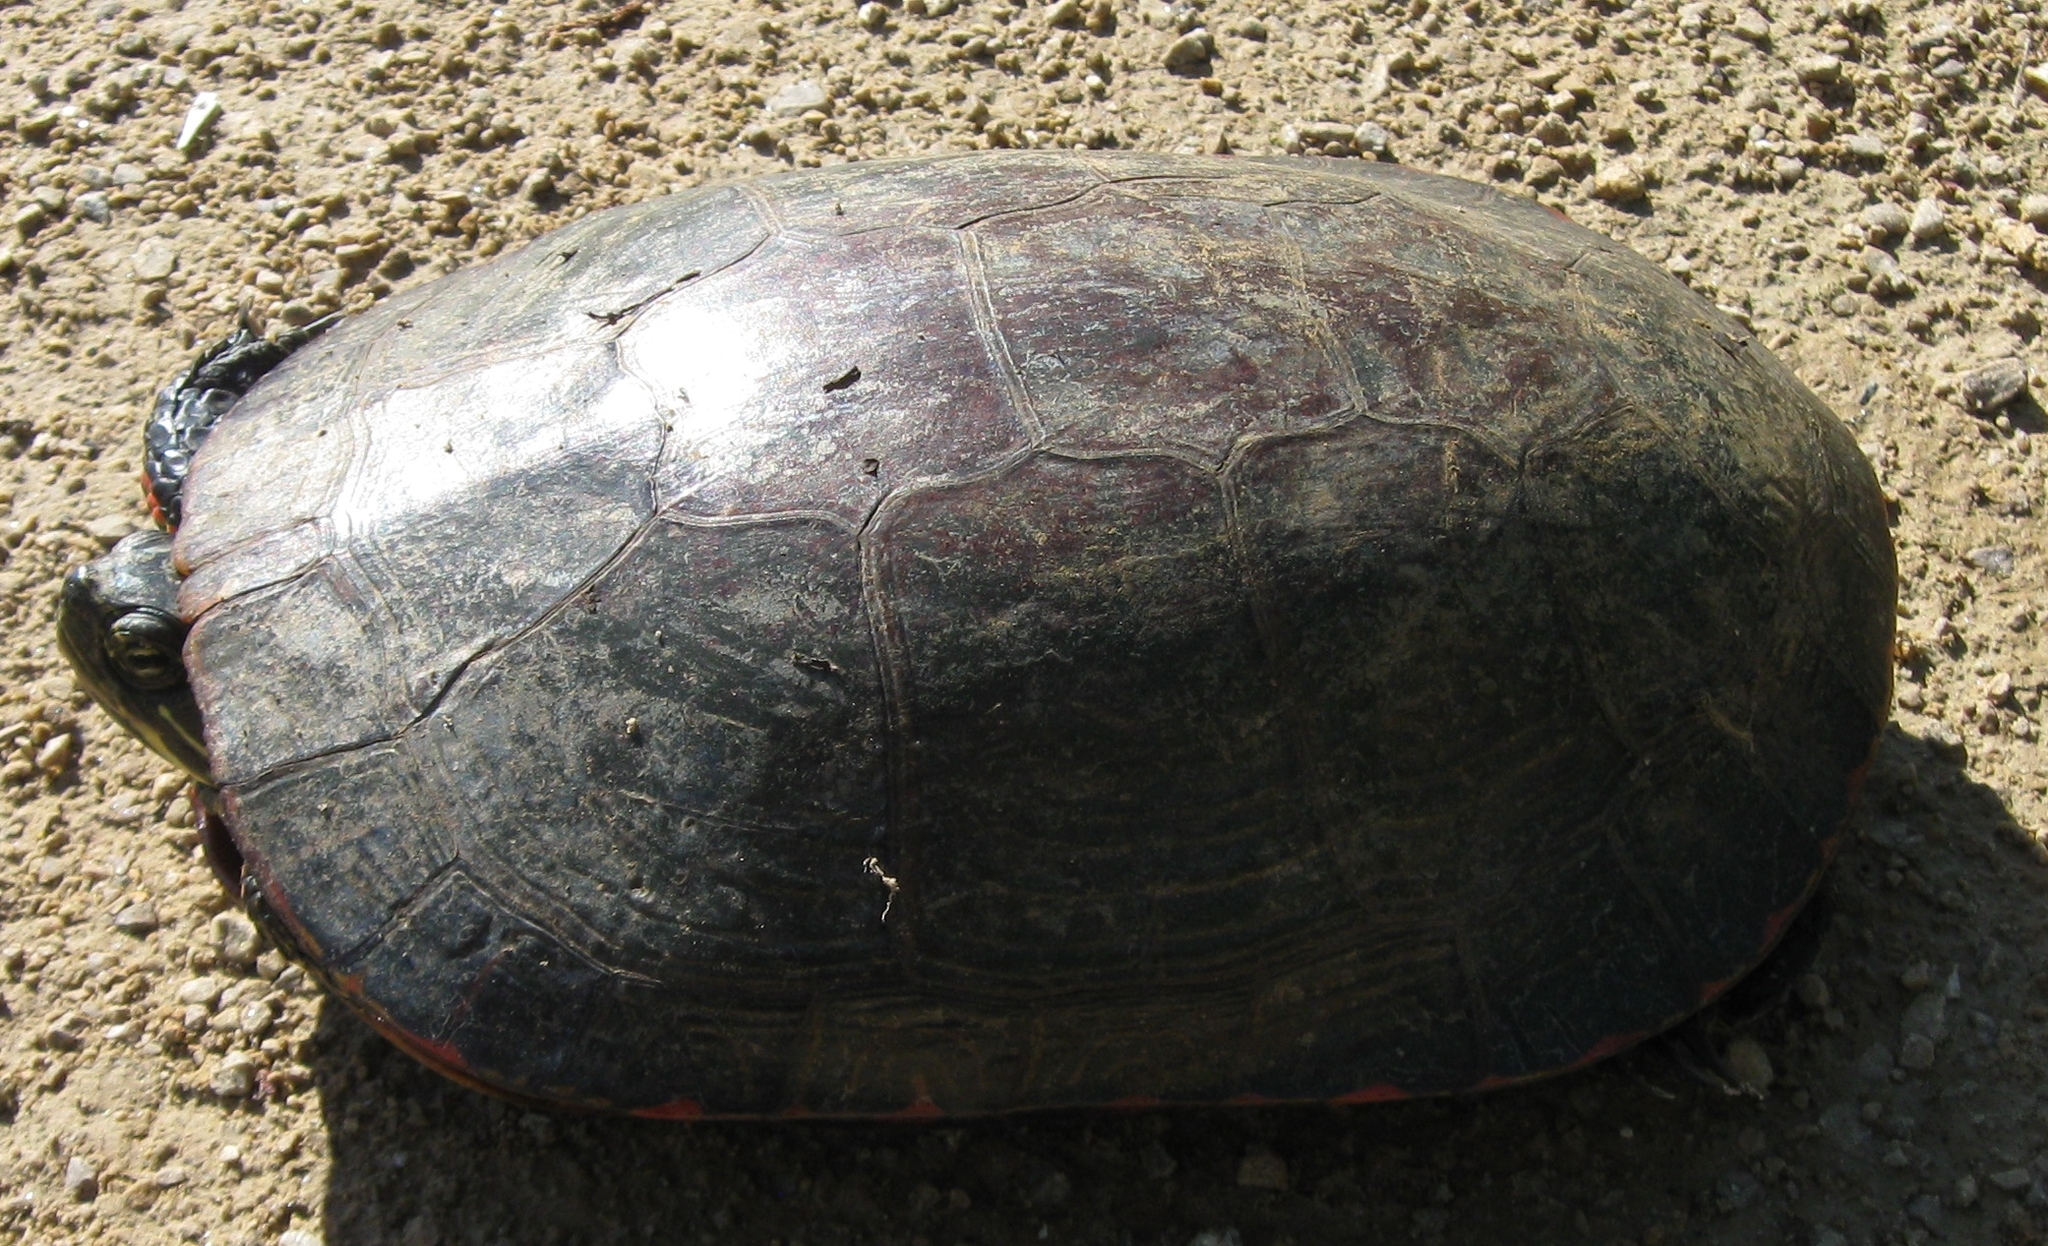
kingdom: Animalia
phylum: Chordata
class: Testudines
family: Emydidae
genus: Chrysemys
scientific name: Chrysemys picta
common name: Painted turtle
